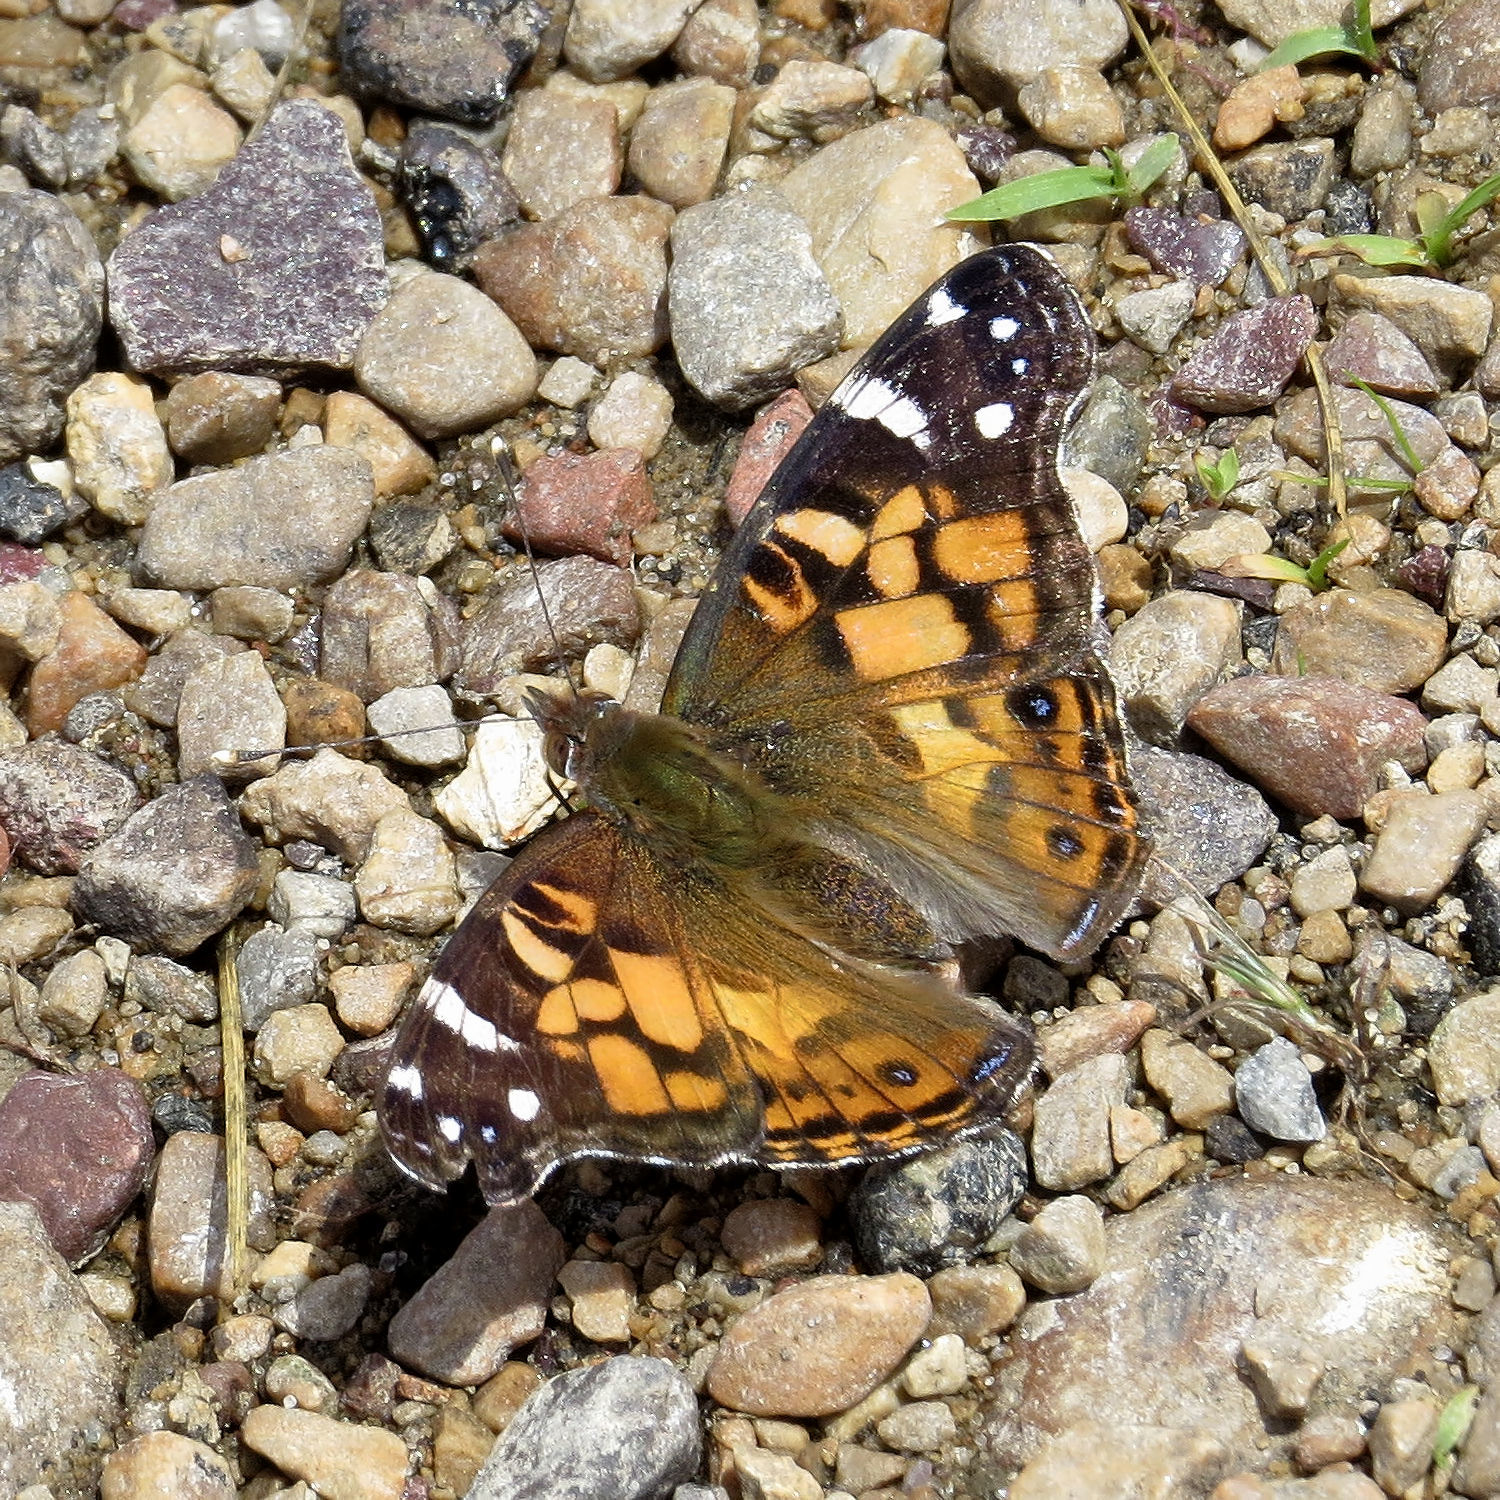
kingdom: Animalia
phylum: Arthropoda
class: Insecta
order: Lepidoptera
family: Nymphalidae
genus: Vanessa
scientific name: Vanessa virginiensis
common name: American lady
